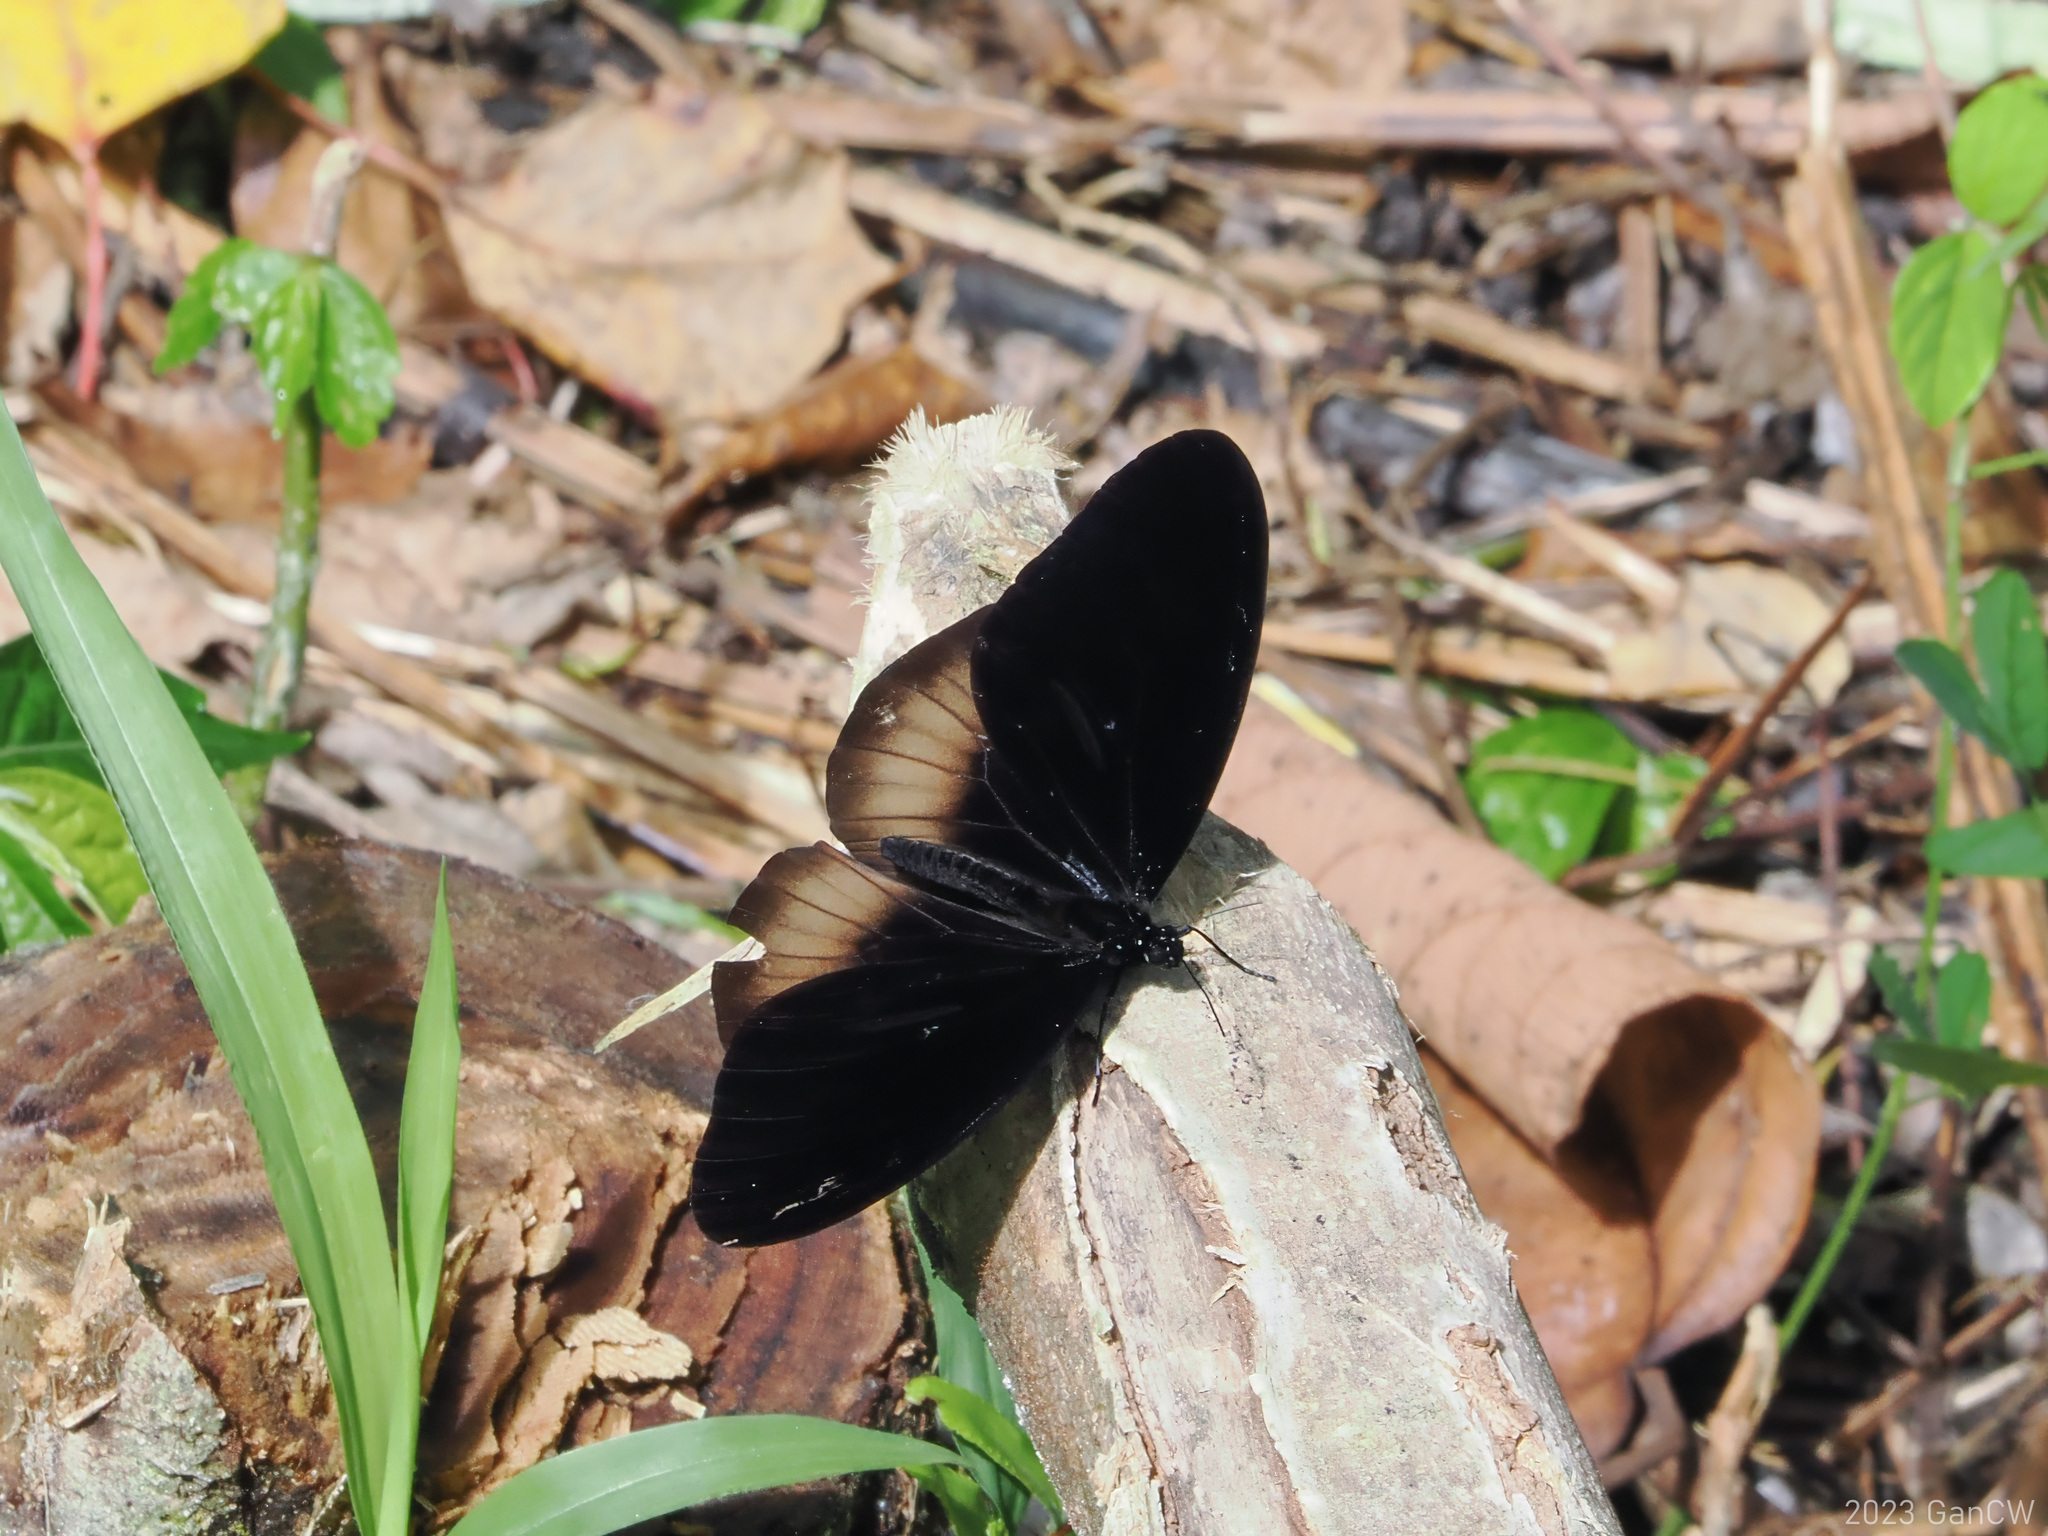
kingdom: Animalia
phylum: Arthropoda
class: Insecta
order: Lepidoptera
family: Nymphalidae
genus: Euploea
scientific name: Euploea magou
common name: Magou
